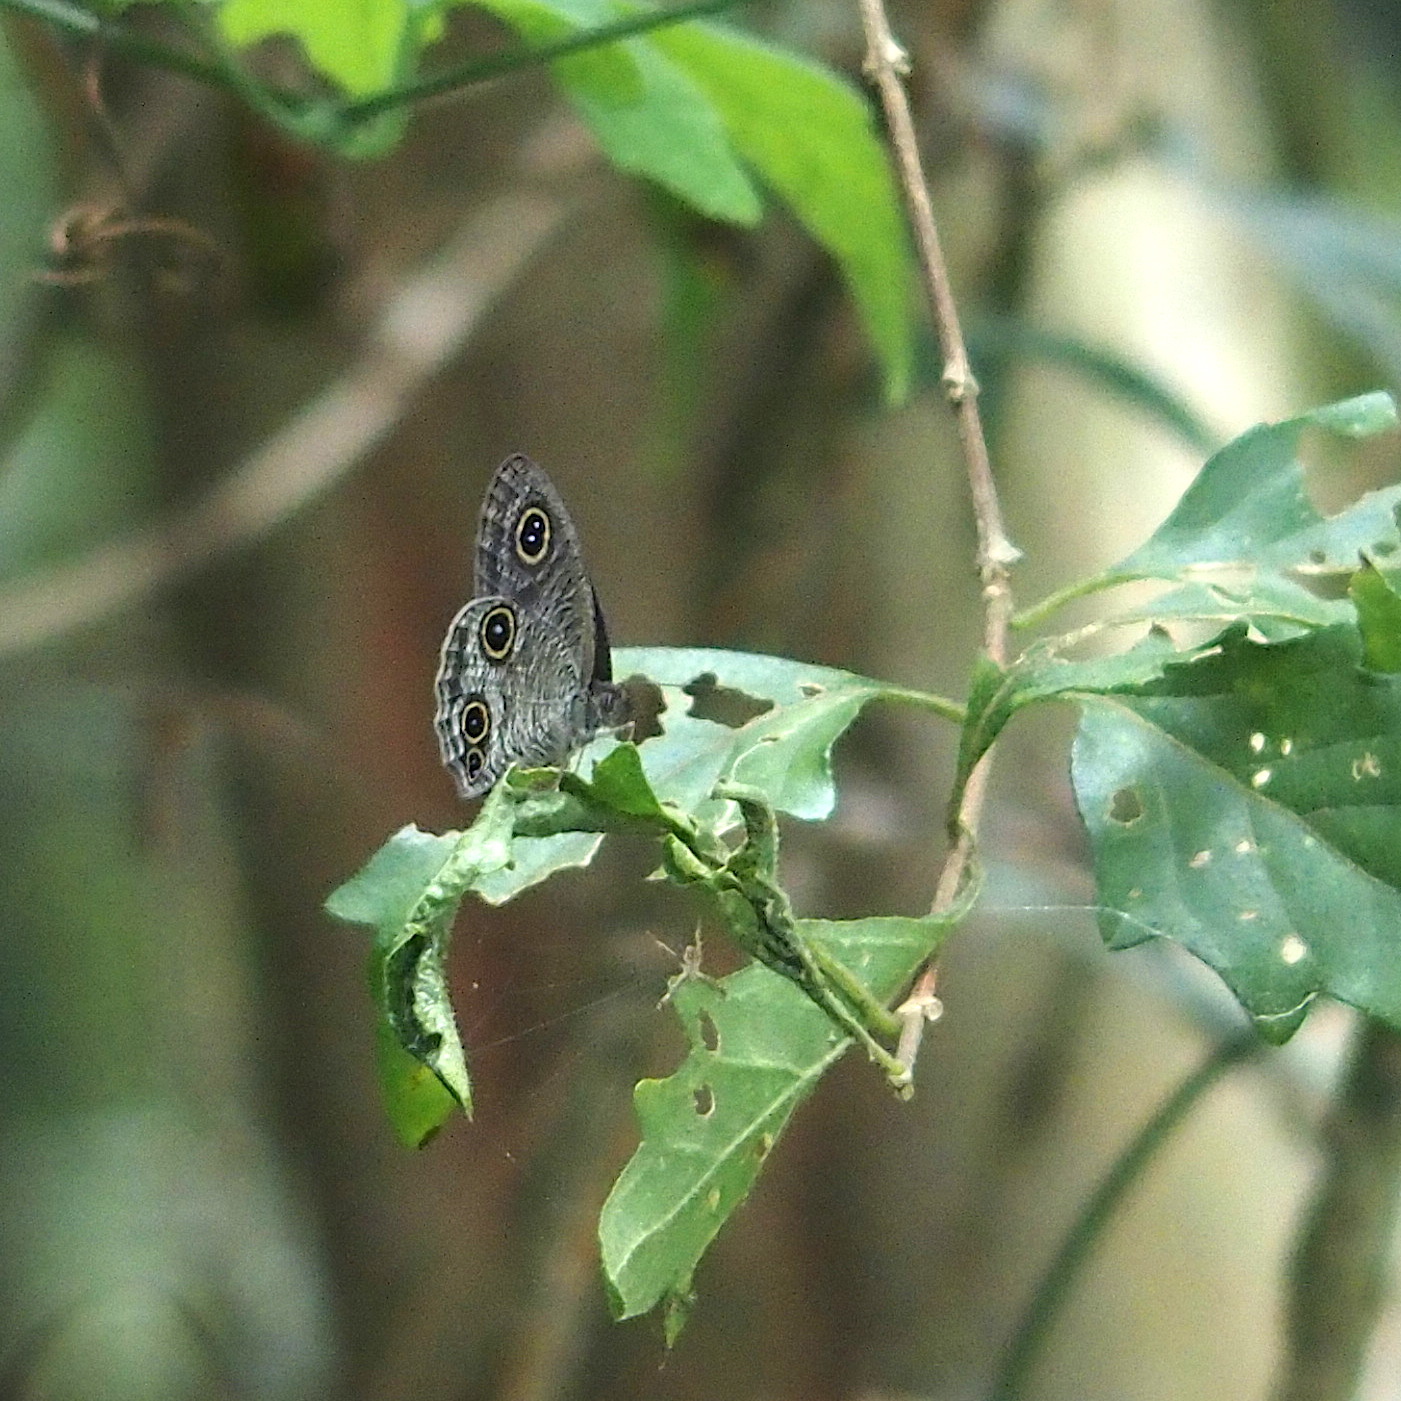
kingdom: Animalia
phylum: Arthropoda
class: Insecta
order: Lepidoptera
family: Nymphalidae
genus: Ypthima
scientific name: Ypthima multistriata
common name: Striated ringlet
